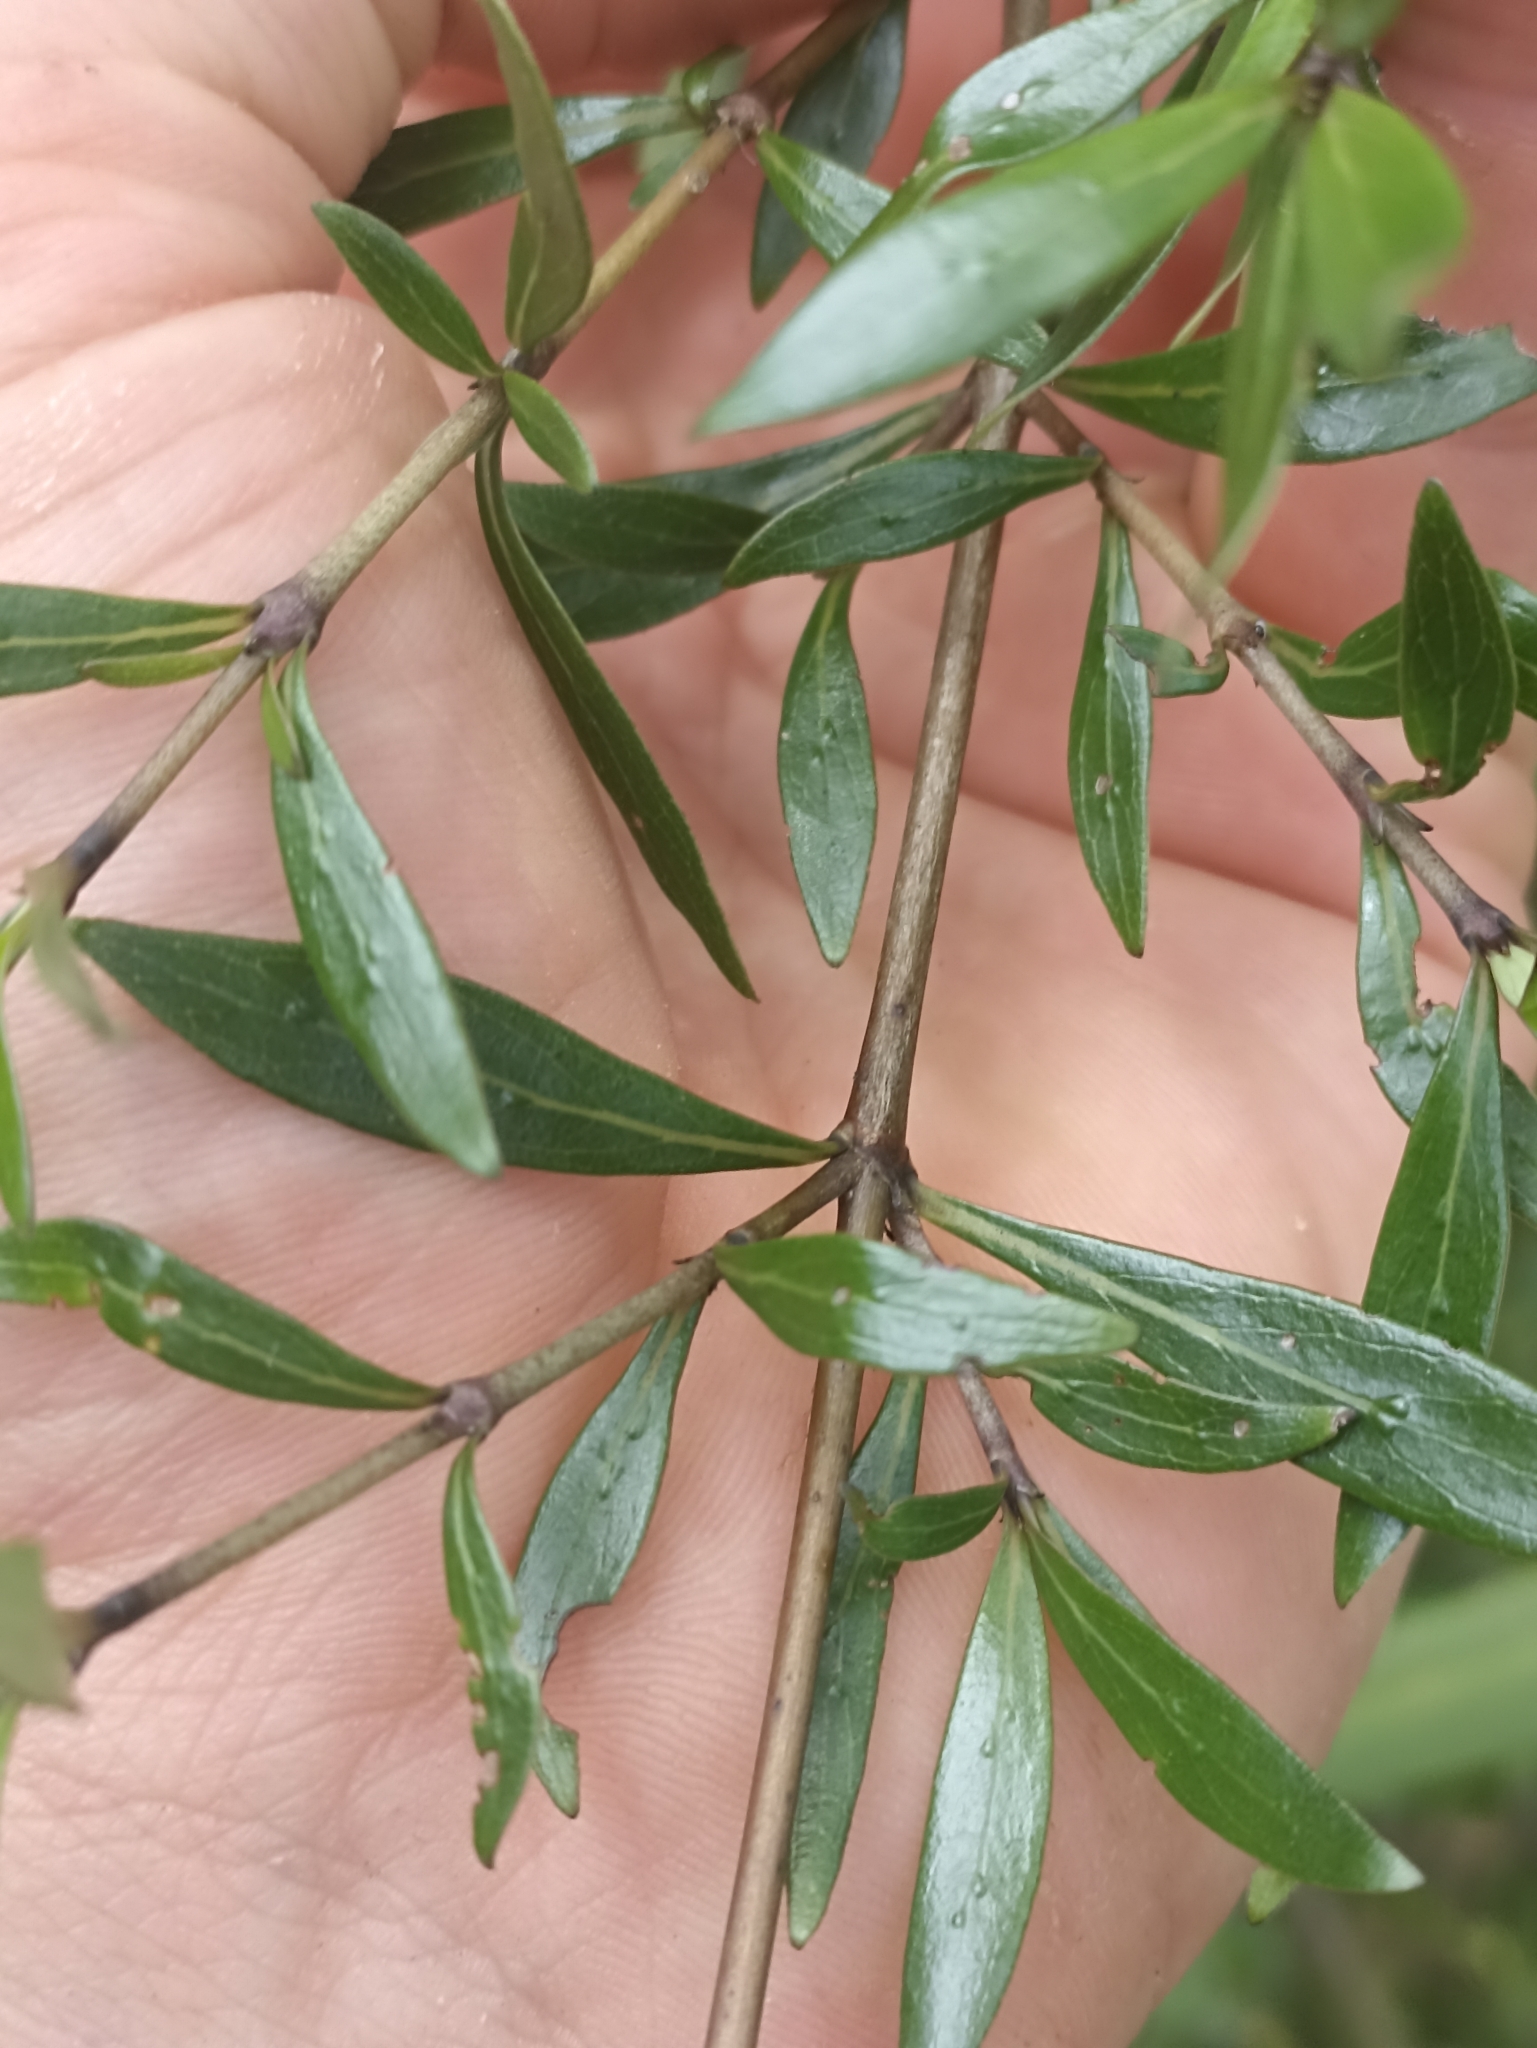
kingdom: Plantae
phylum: Tracheophyta
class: Magnoliopsida
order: Gentianales
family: Rubiaceae
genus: Coprosma
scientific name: Coprosma cunninghamii
